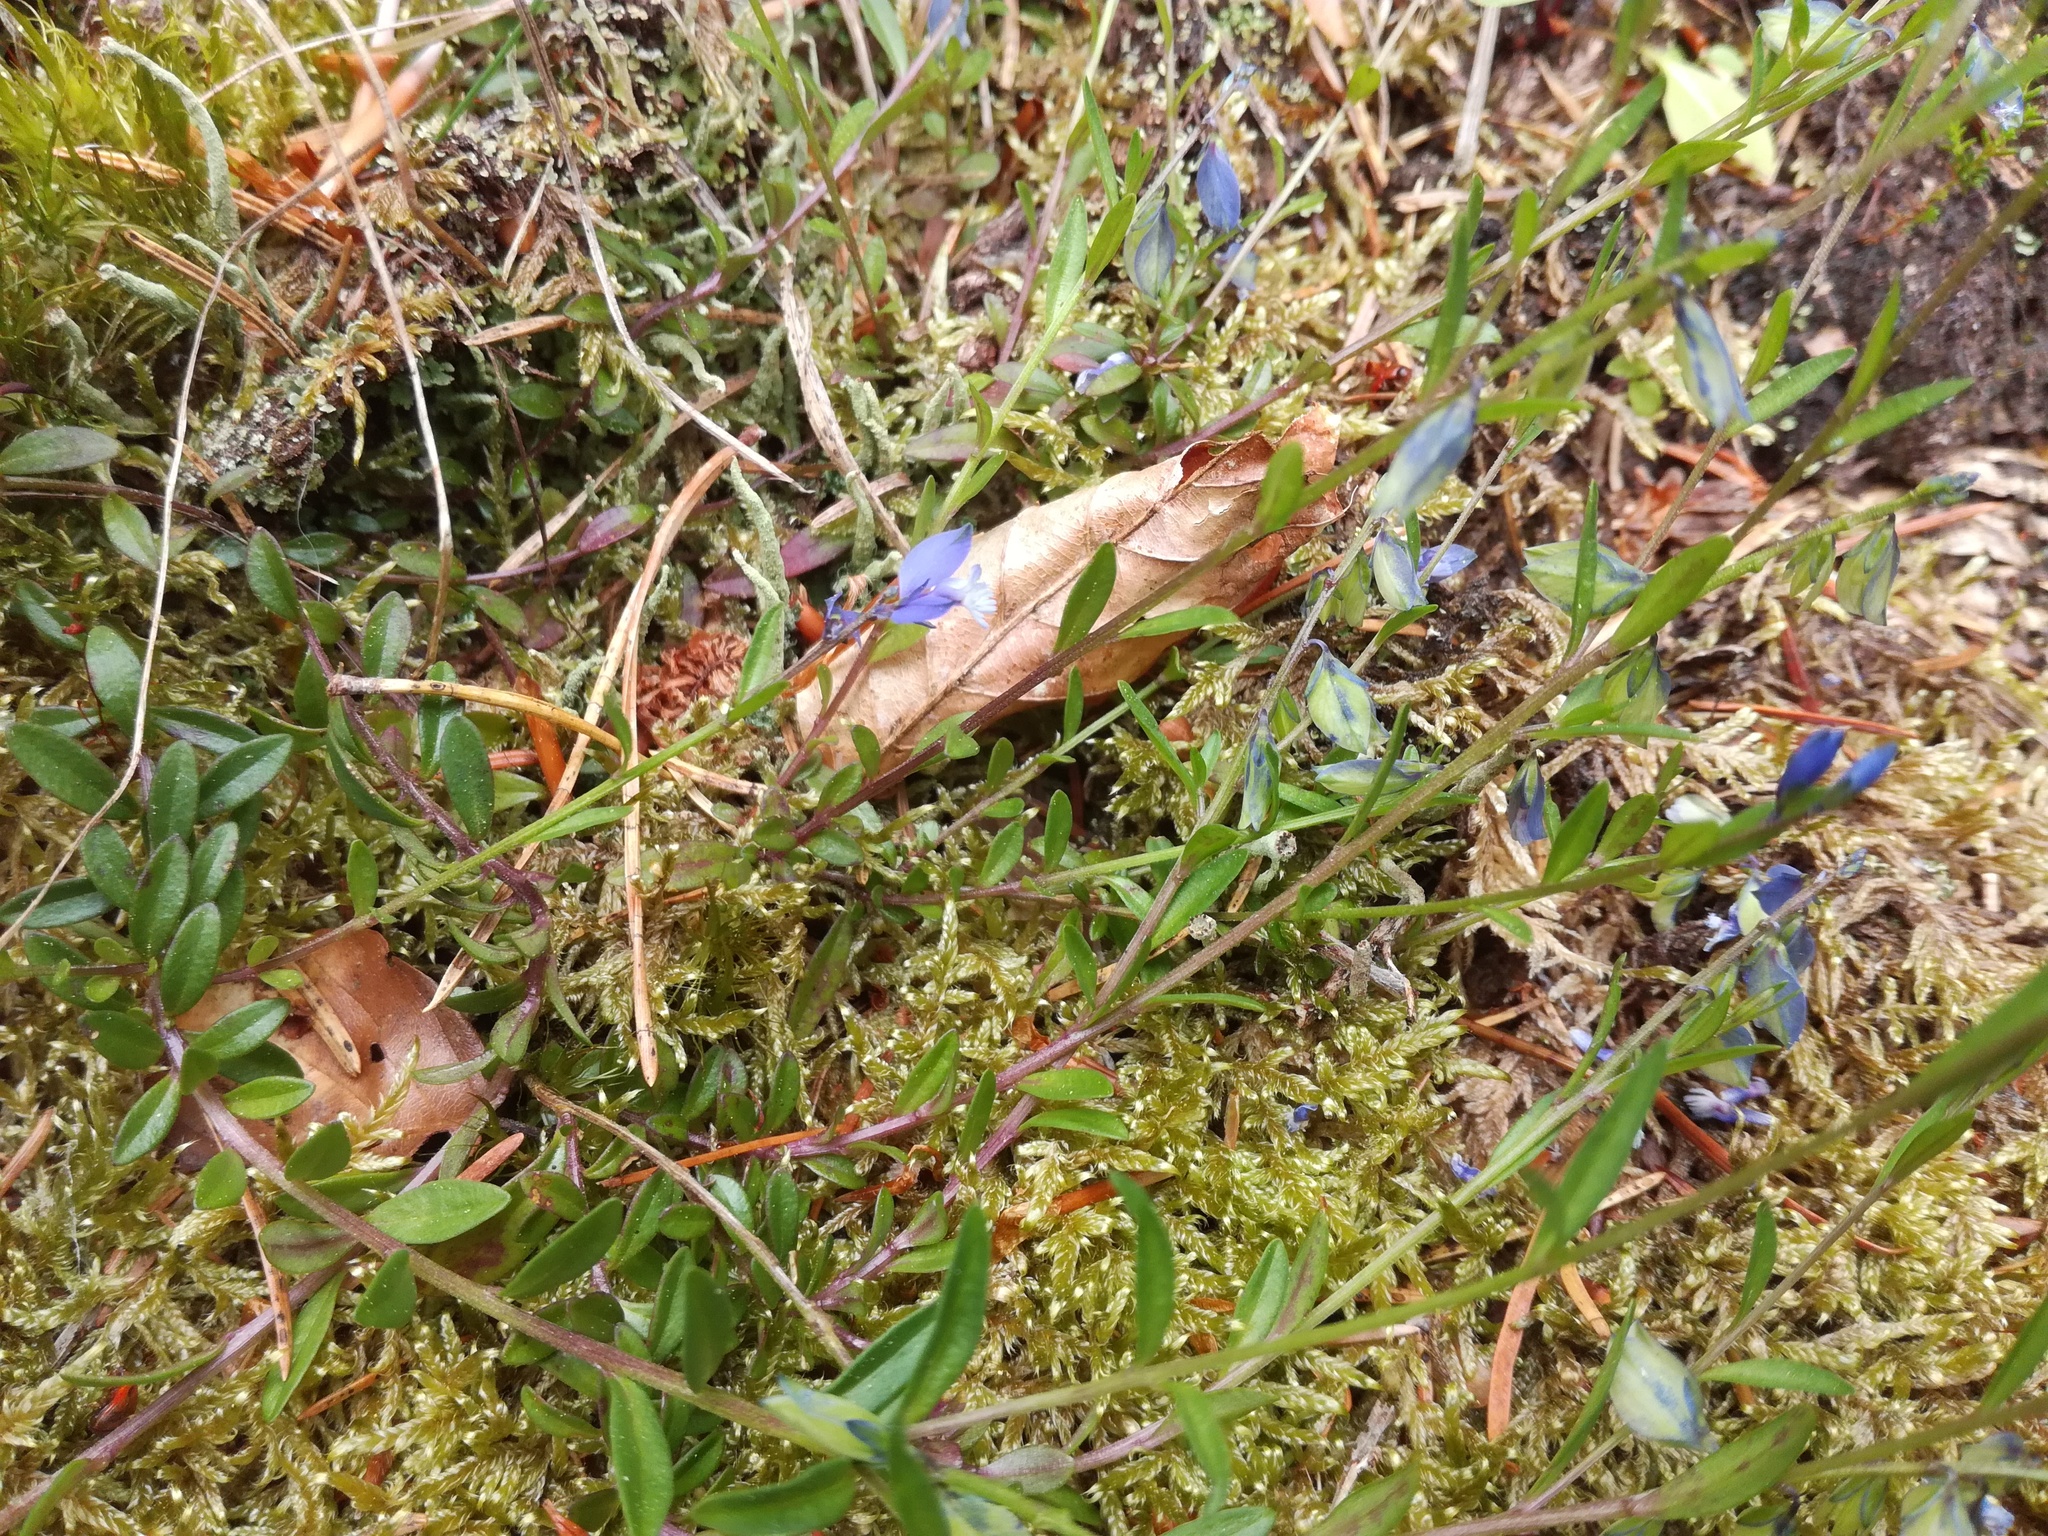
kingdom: Plantae
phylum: Tracheophyta
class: Magnoliopsida
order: Fabales
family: Polygalaceae
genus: Polygala
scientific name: Polygala vulgaris
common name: Common milkwort
